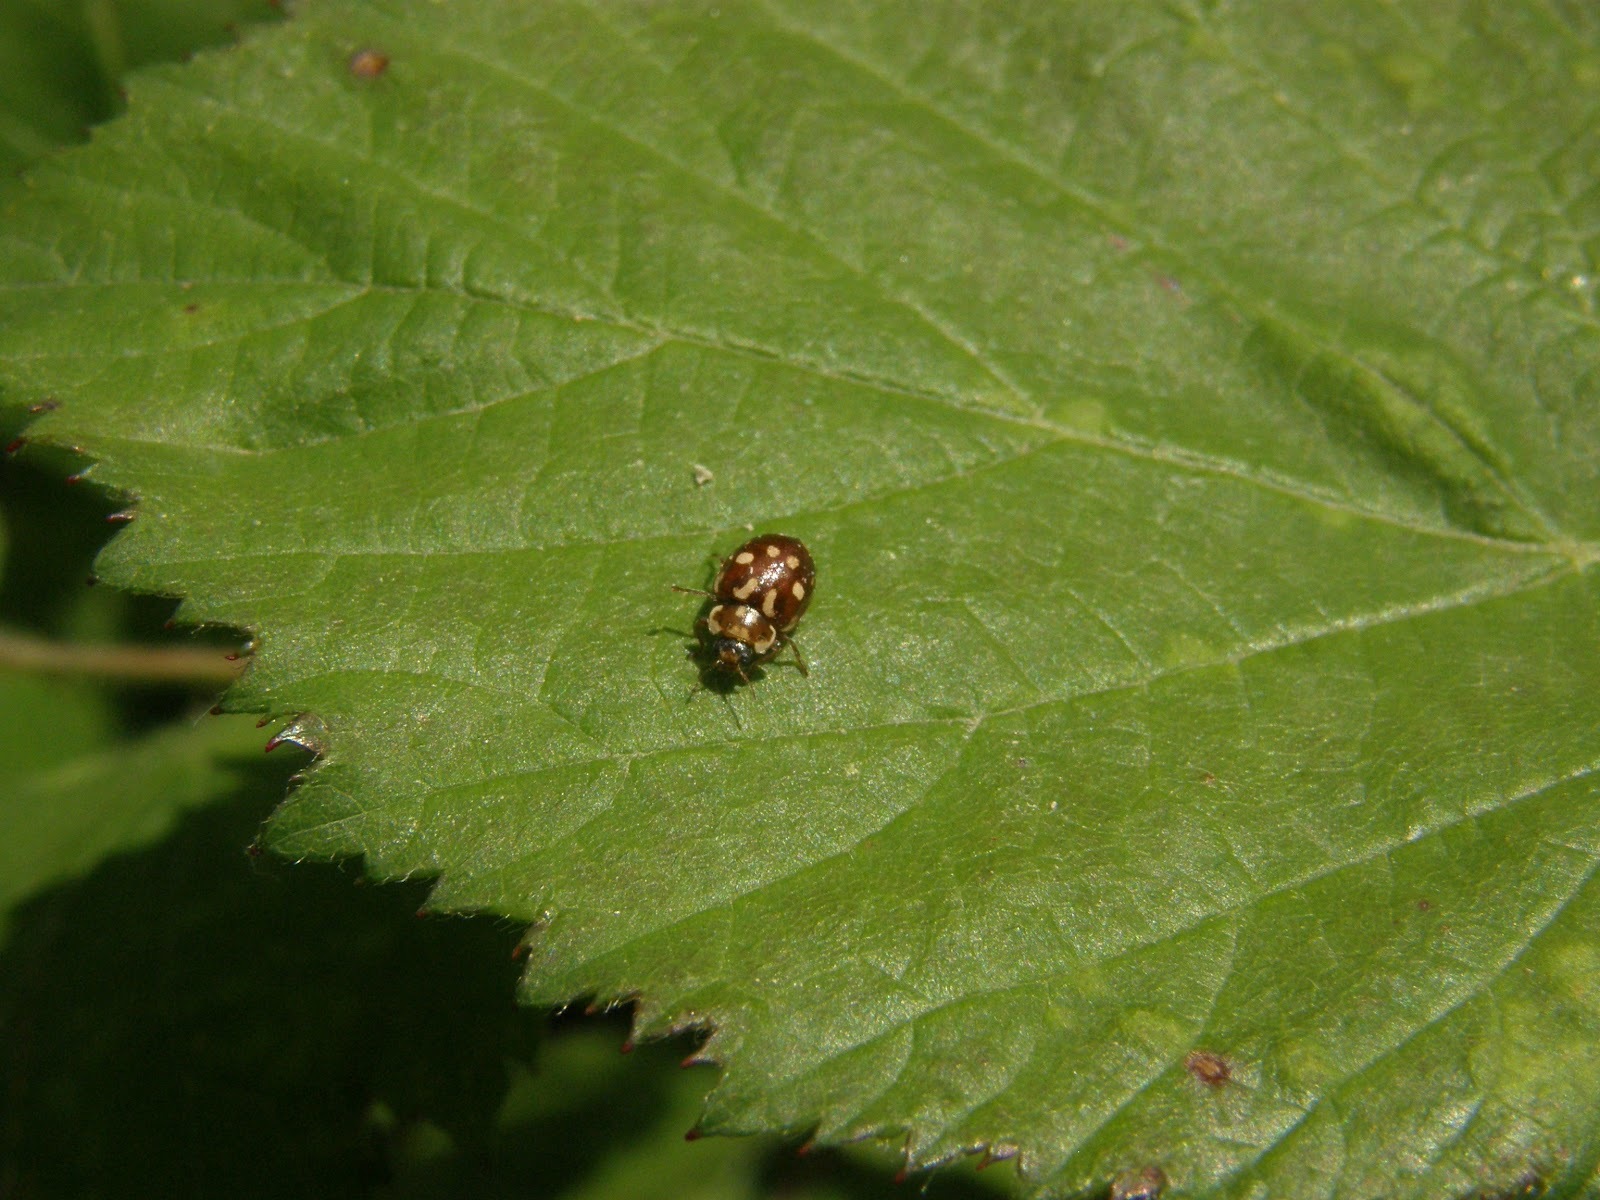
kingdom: Animalia
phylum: Arthropoda
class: Insecta
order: Coleoptera
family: Coccinellidae
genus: Myrrha
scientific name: Myrrha octodecimguttata
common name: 18-spot ladybird
